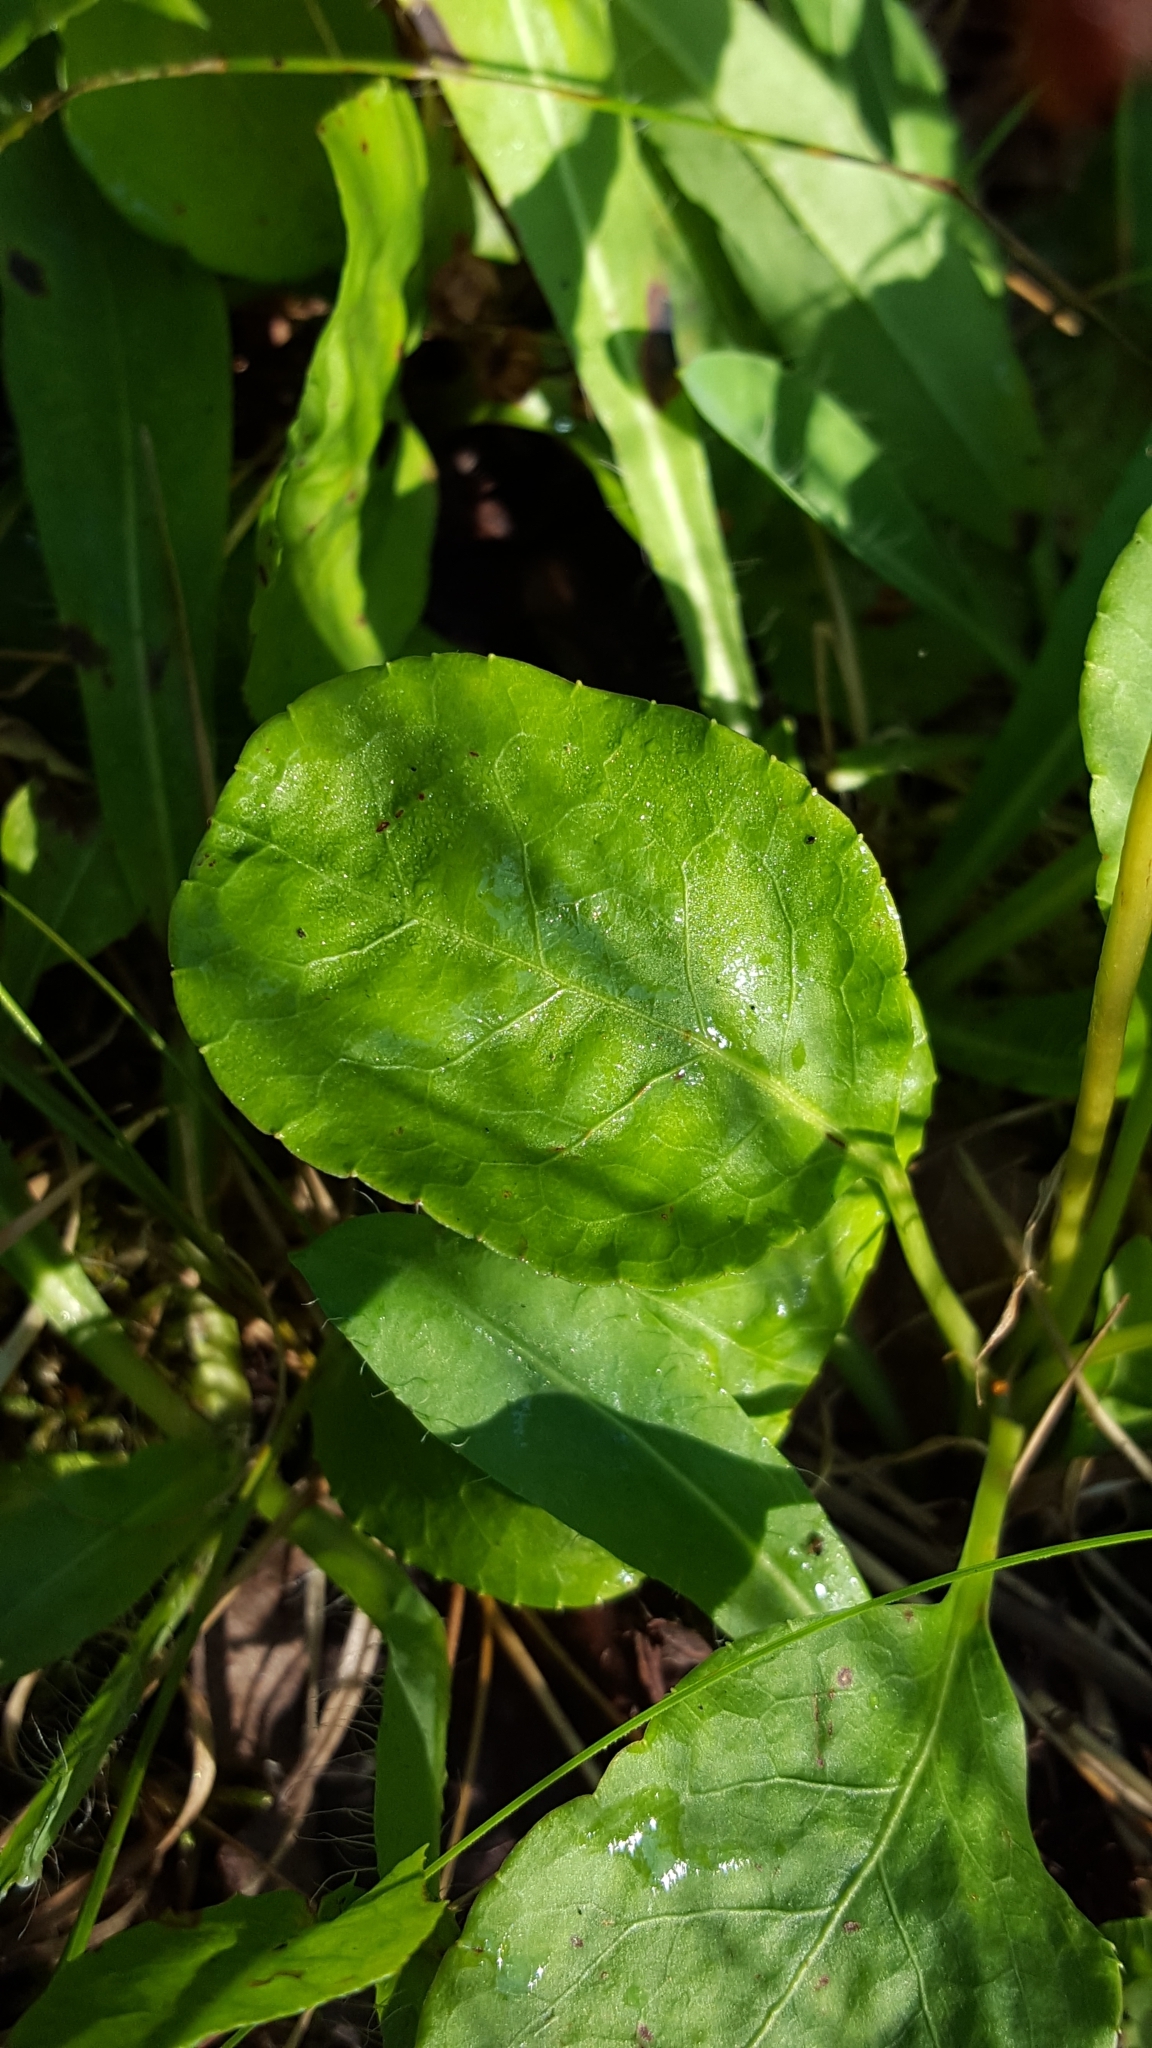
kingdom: Plantae
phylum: Tracheophyta
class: Magnoliopsida
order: Ericales
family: Ericaceae
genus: Pyrola
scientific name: Pyrola elliptica
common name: Shinleaf
